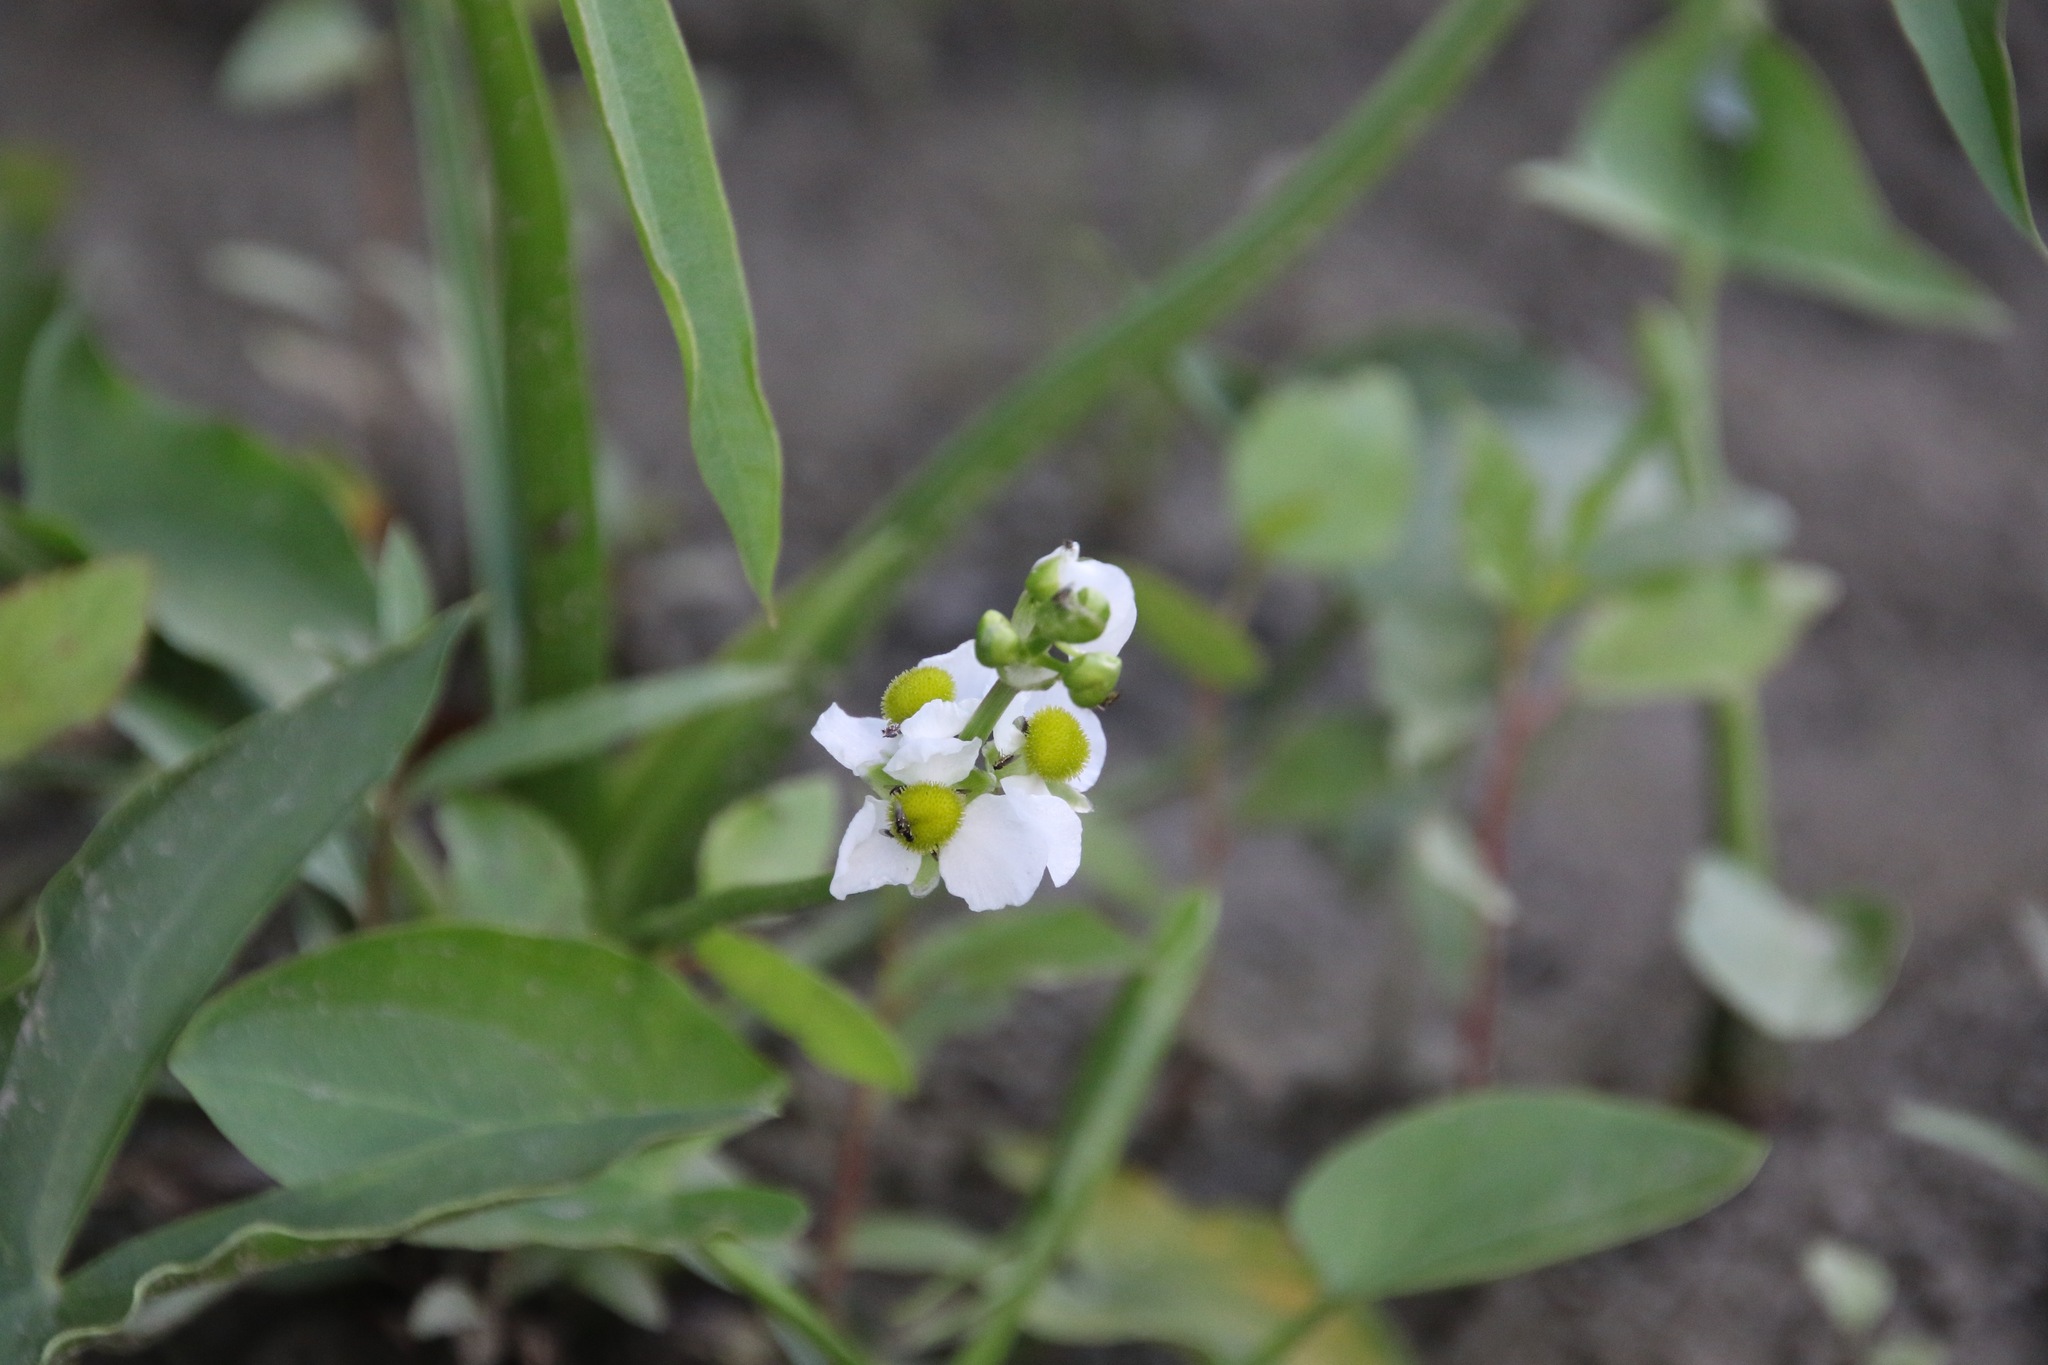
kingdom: Plantae
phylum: Tracheophyta
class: Liliopsida
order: Alismatales
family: Alismataceae
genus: Sagittaria
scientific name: Sagittaria latifolia
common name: Duck-potato
